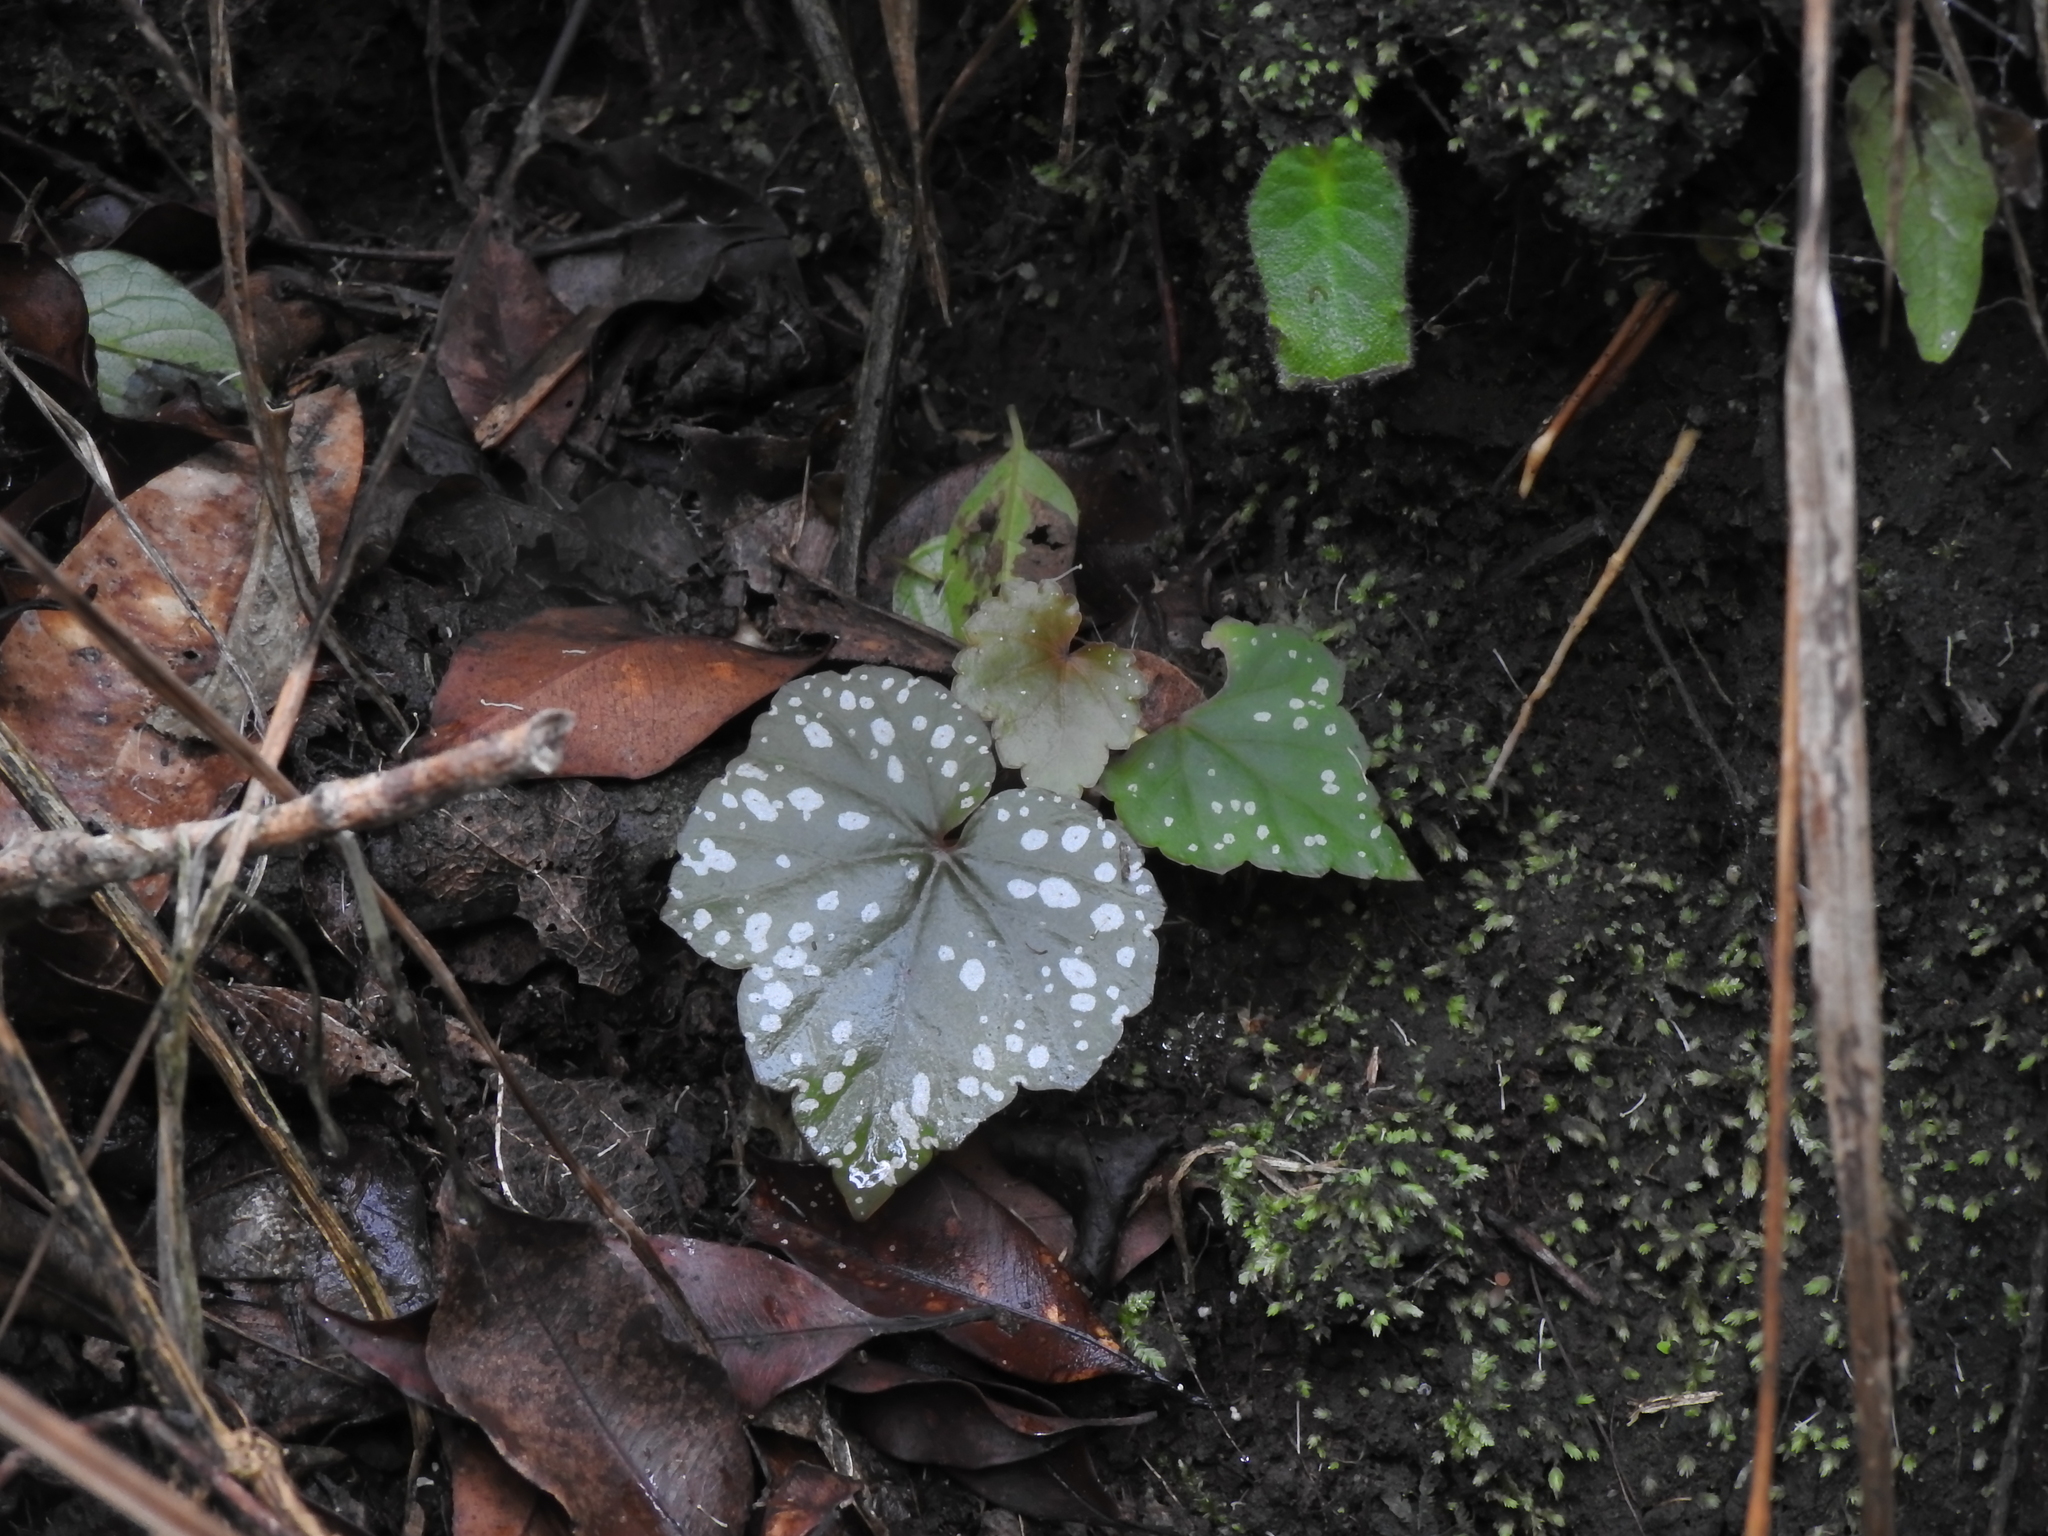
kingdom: Plantae
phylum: Tracheophyta
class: Magnoliopsida
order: Cucurbitales
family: Begoniaceae
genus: Begonia
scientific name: Begonia sonderiana
